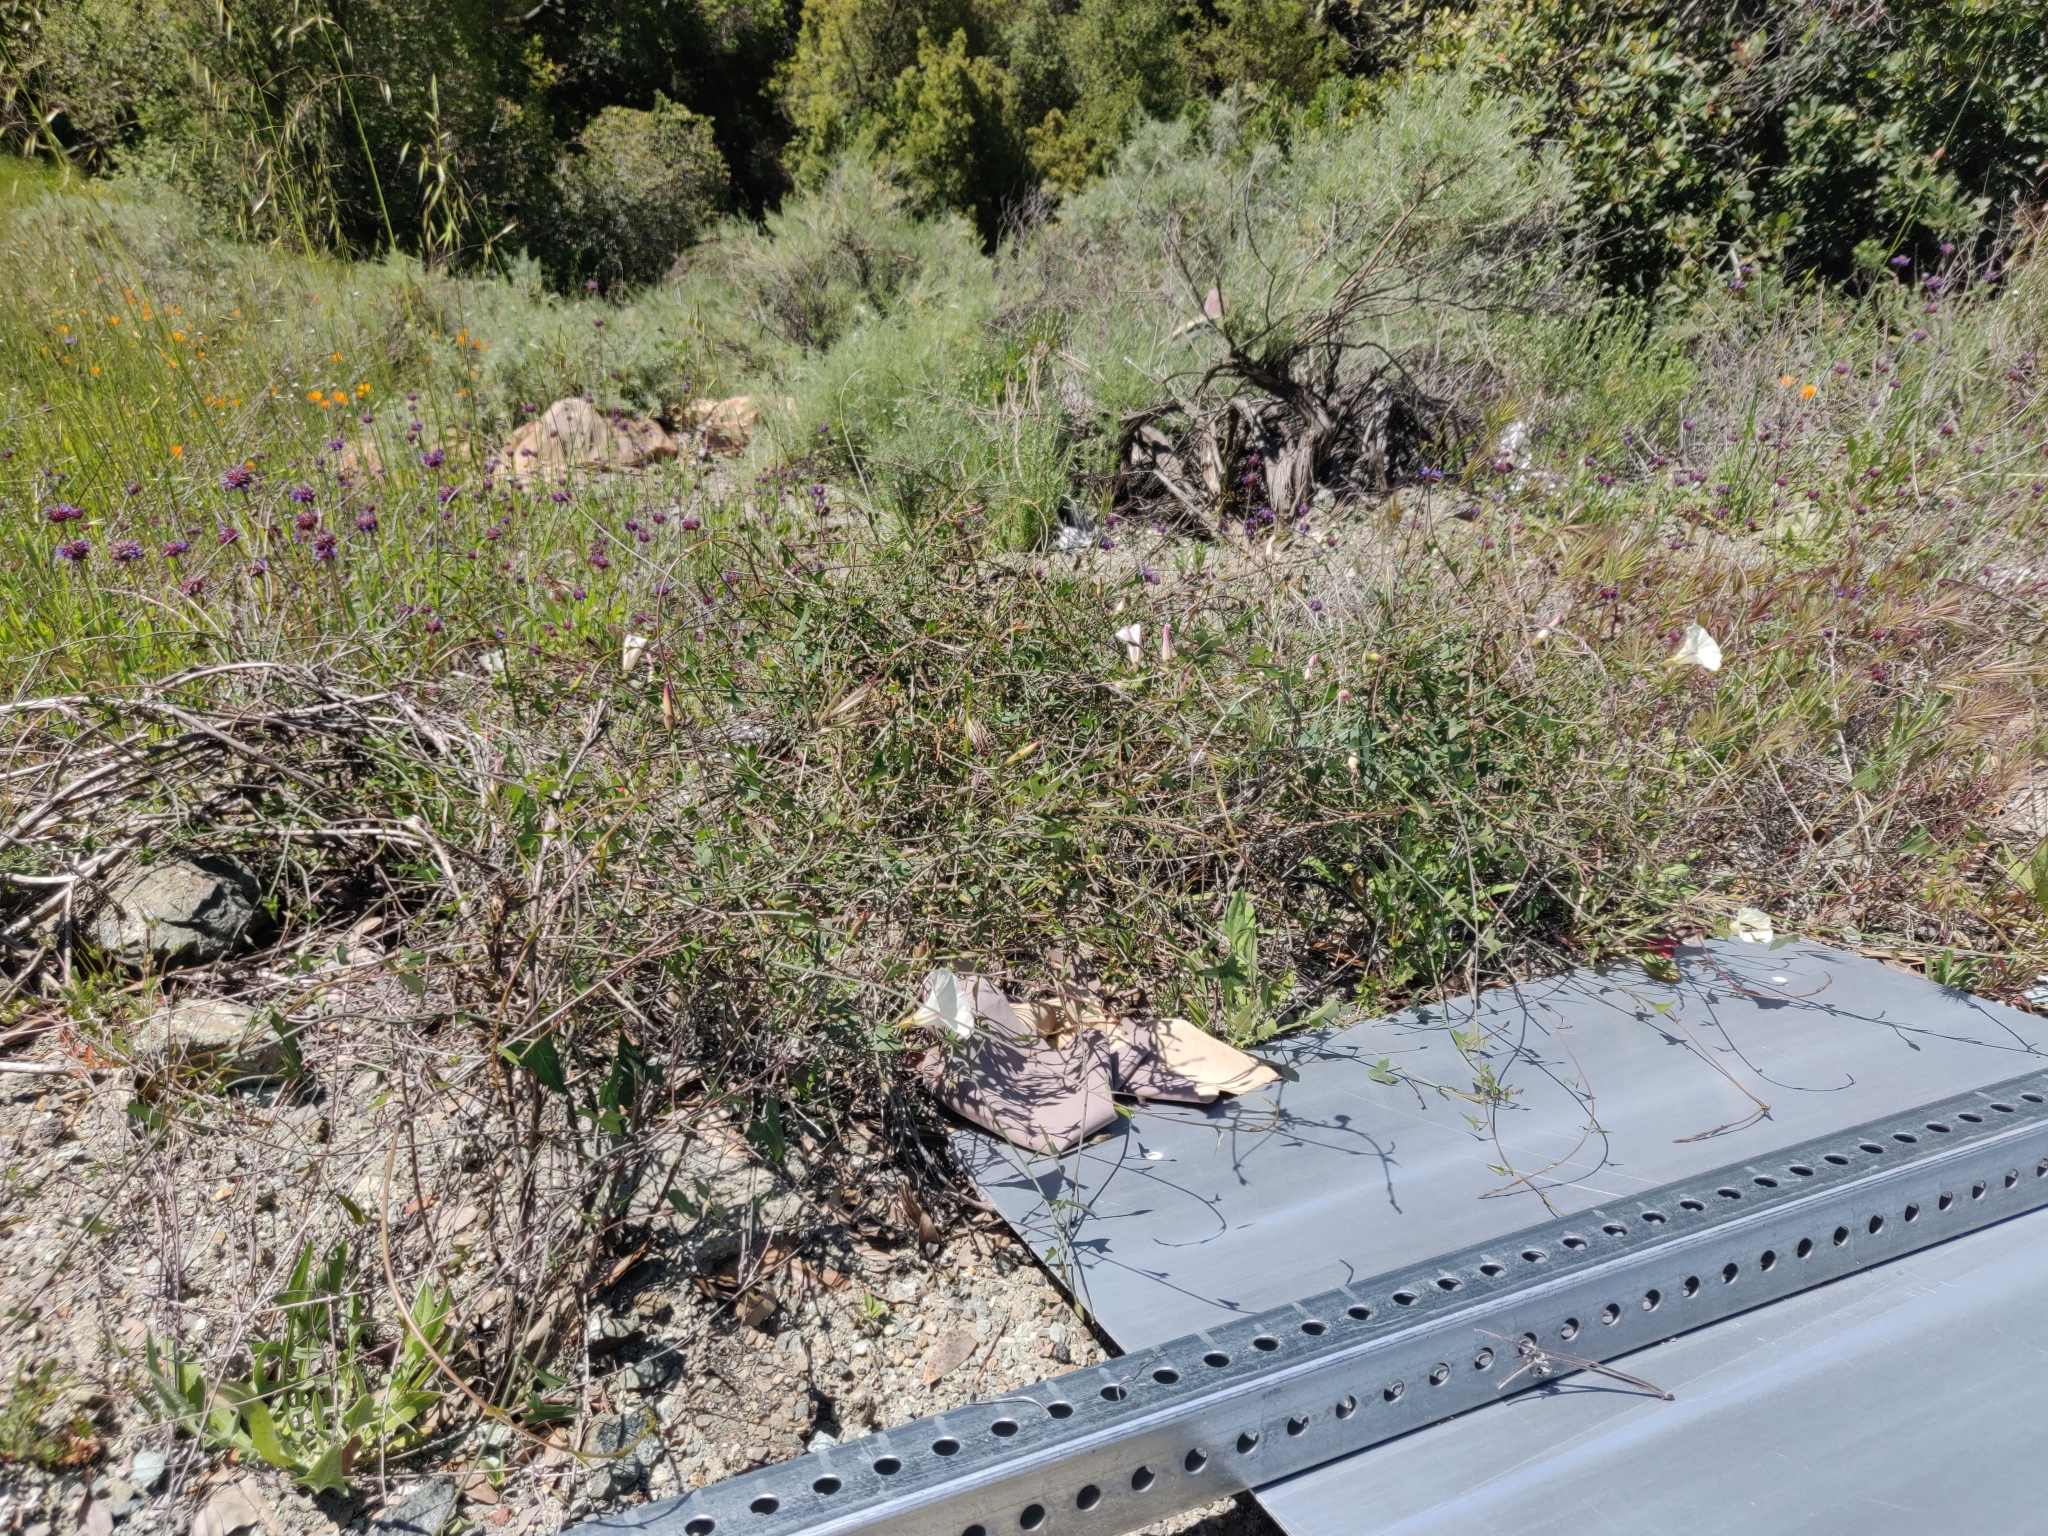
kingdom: Plantae
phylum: Tracheophyta
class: Magnoliopsida
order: Solanales
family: Convolvulaceae
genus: Calystegia
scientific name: Calystegia purpurata
